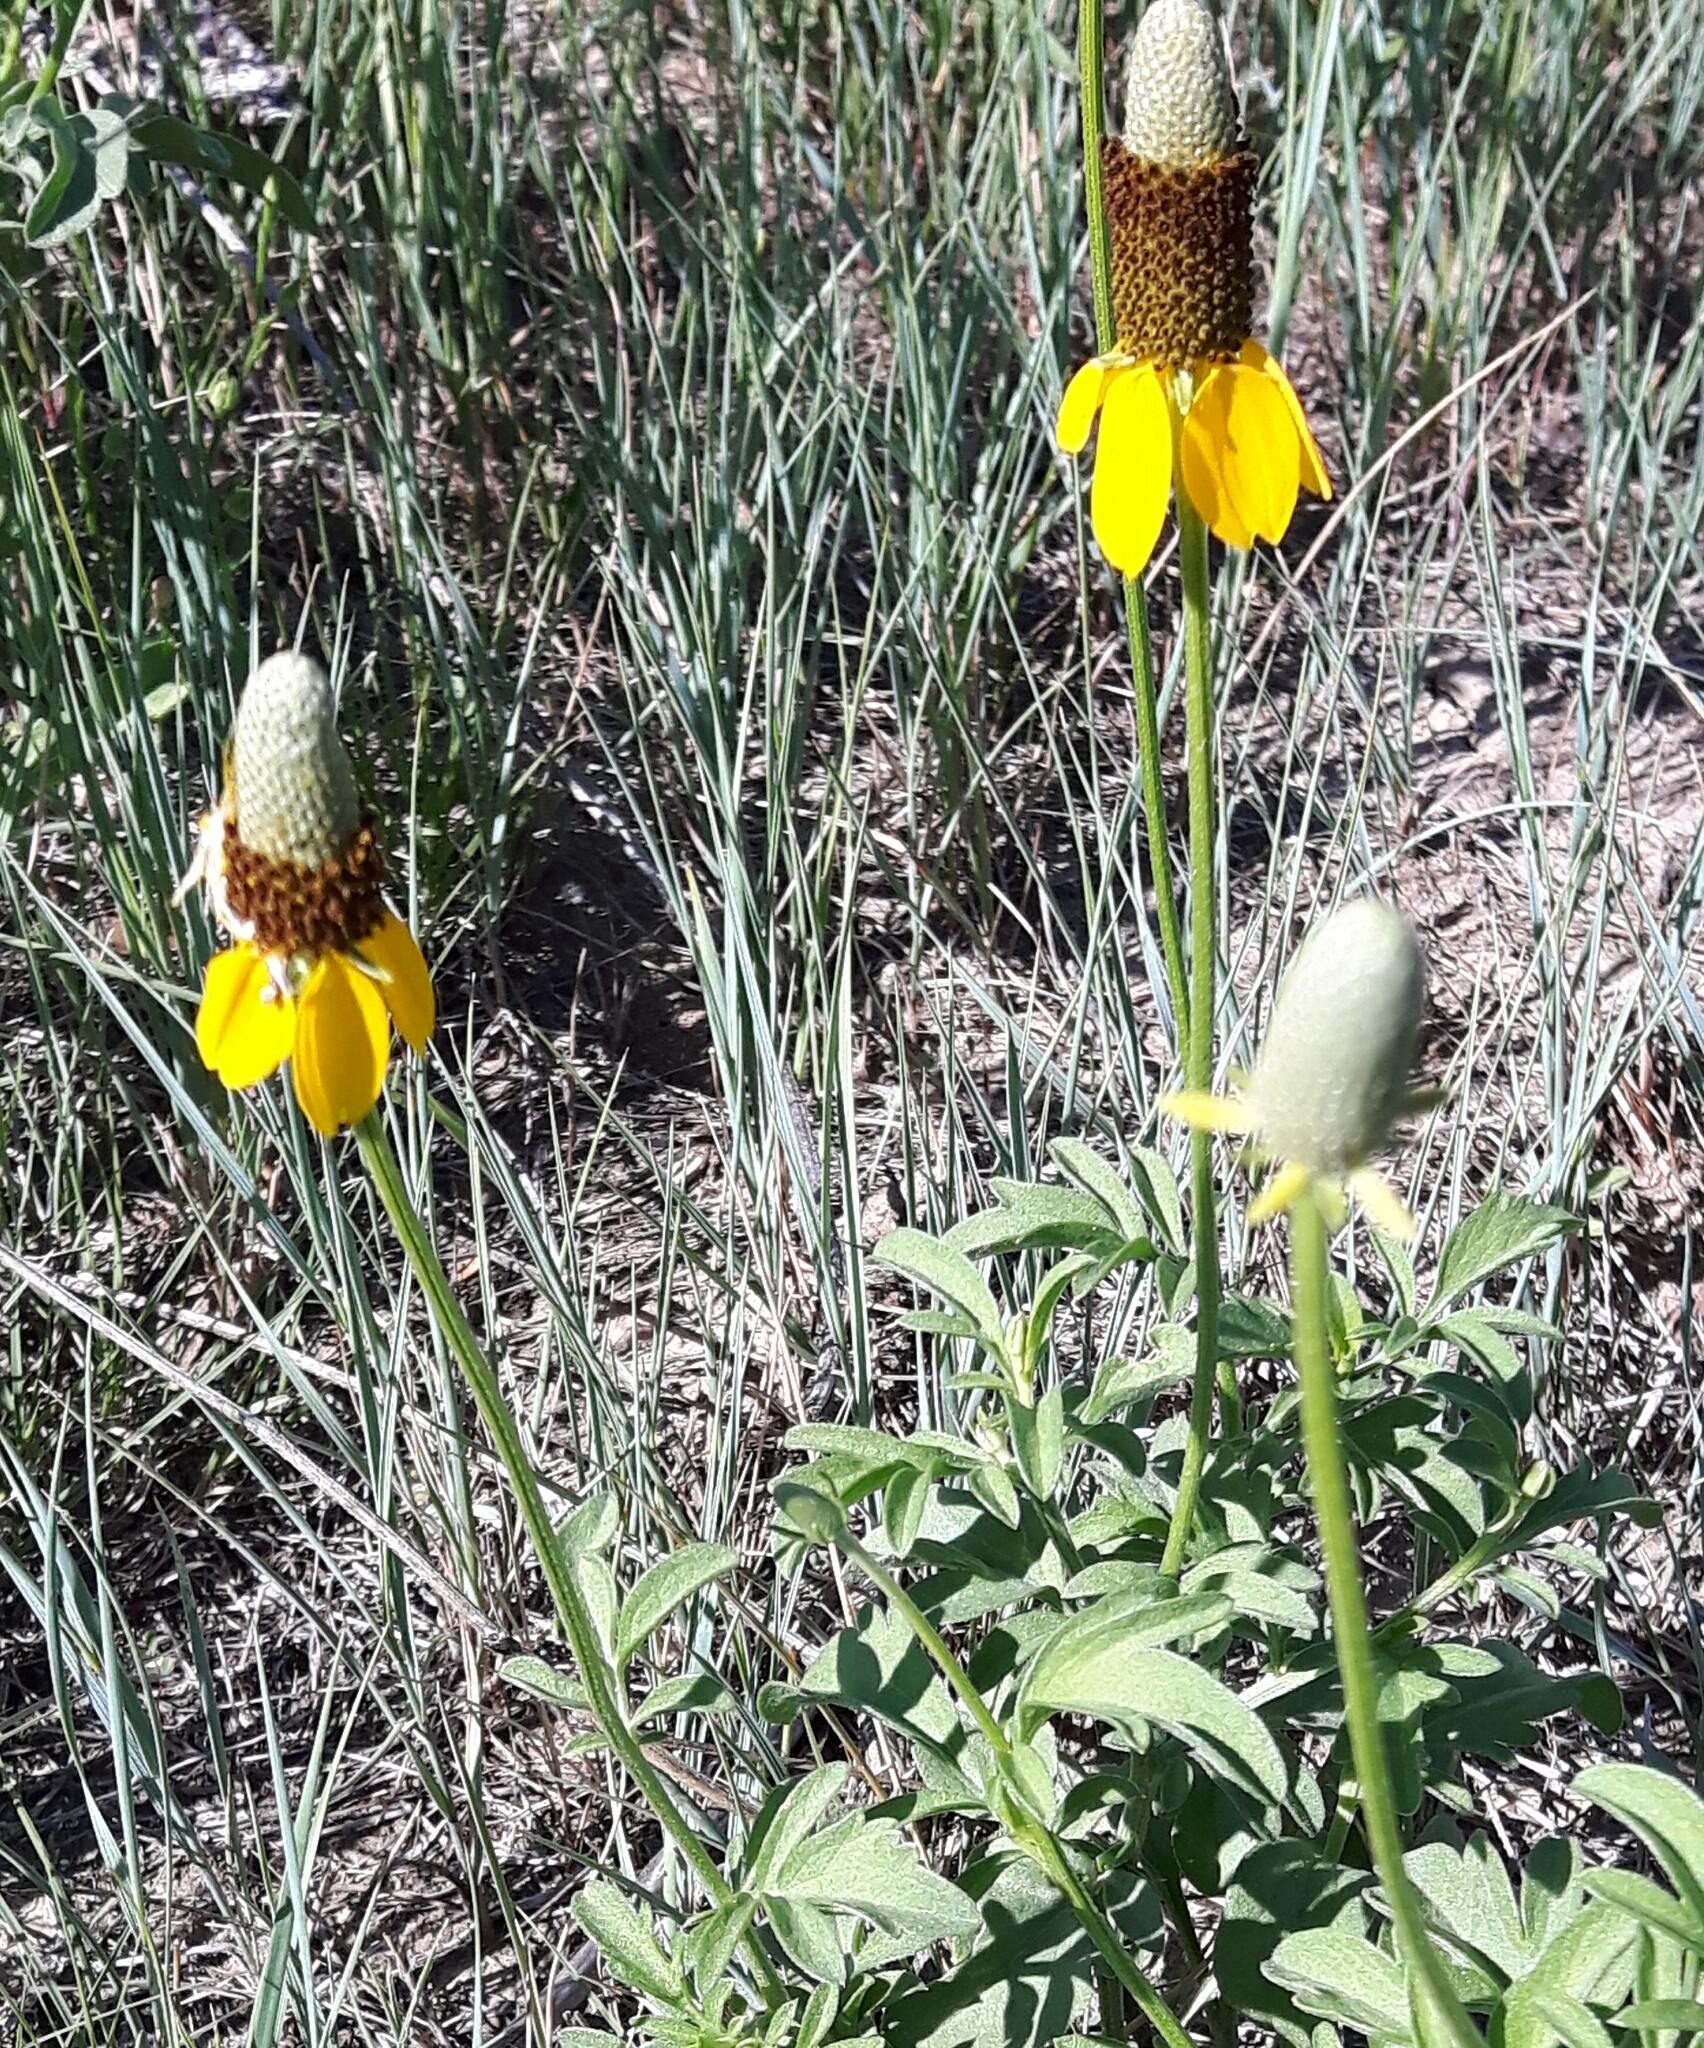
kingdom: Plantae
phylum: Tracheophyta
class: Magnoliopsida
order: Asterales
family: Asteraceae
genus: Ratibida
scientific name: Ratibida columnifera
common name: Prairie coneflower
